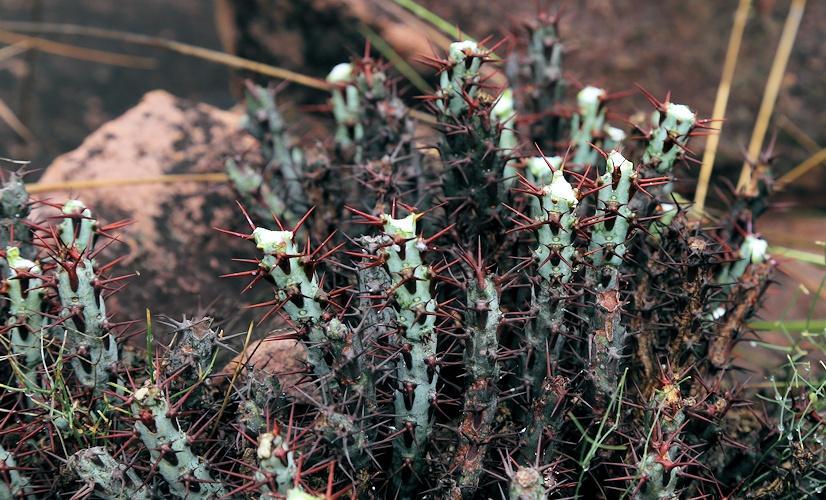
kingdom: Plantae
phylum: Tracheophyta
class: Magnoliopsida
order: Malpighiales
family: Euphorbiaceae
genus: Euphorbia
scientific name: Euphorbia aeruginosa
